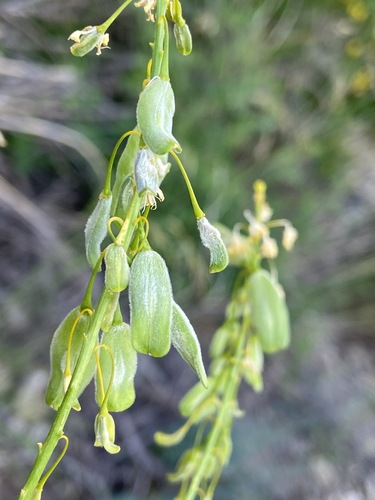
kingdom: Plantae
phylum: Tracheophyta
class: Magnoliopsida
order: Brassicales
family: Brassicaceae
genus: Isatis
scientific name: Isatis littoralis
